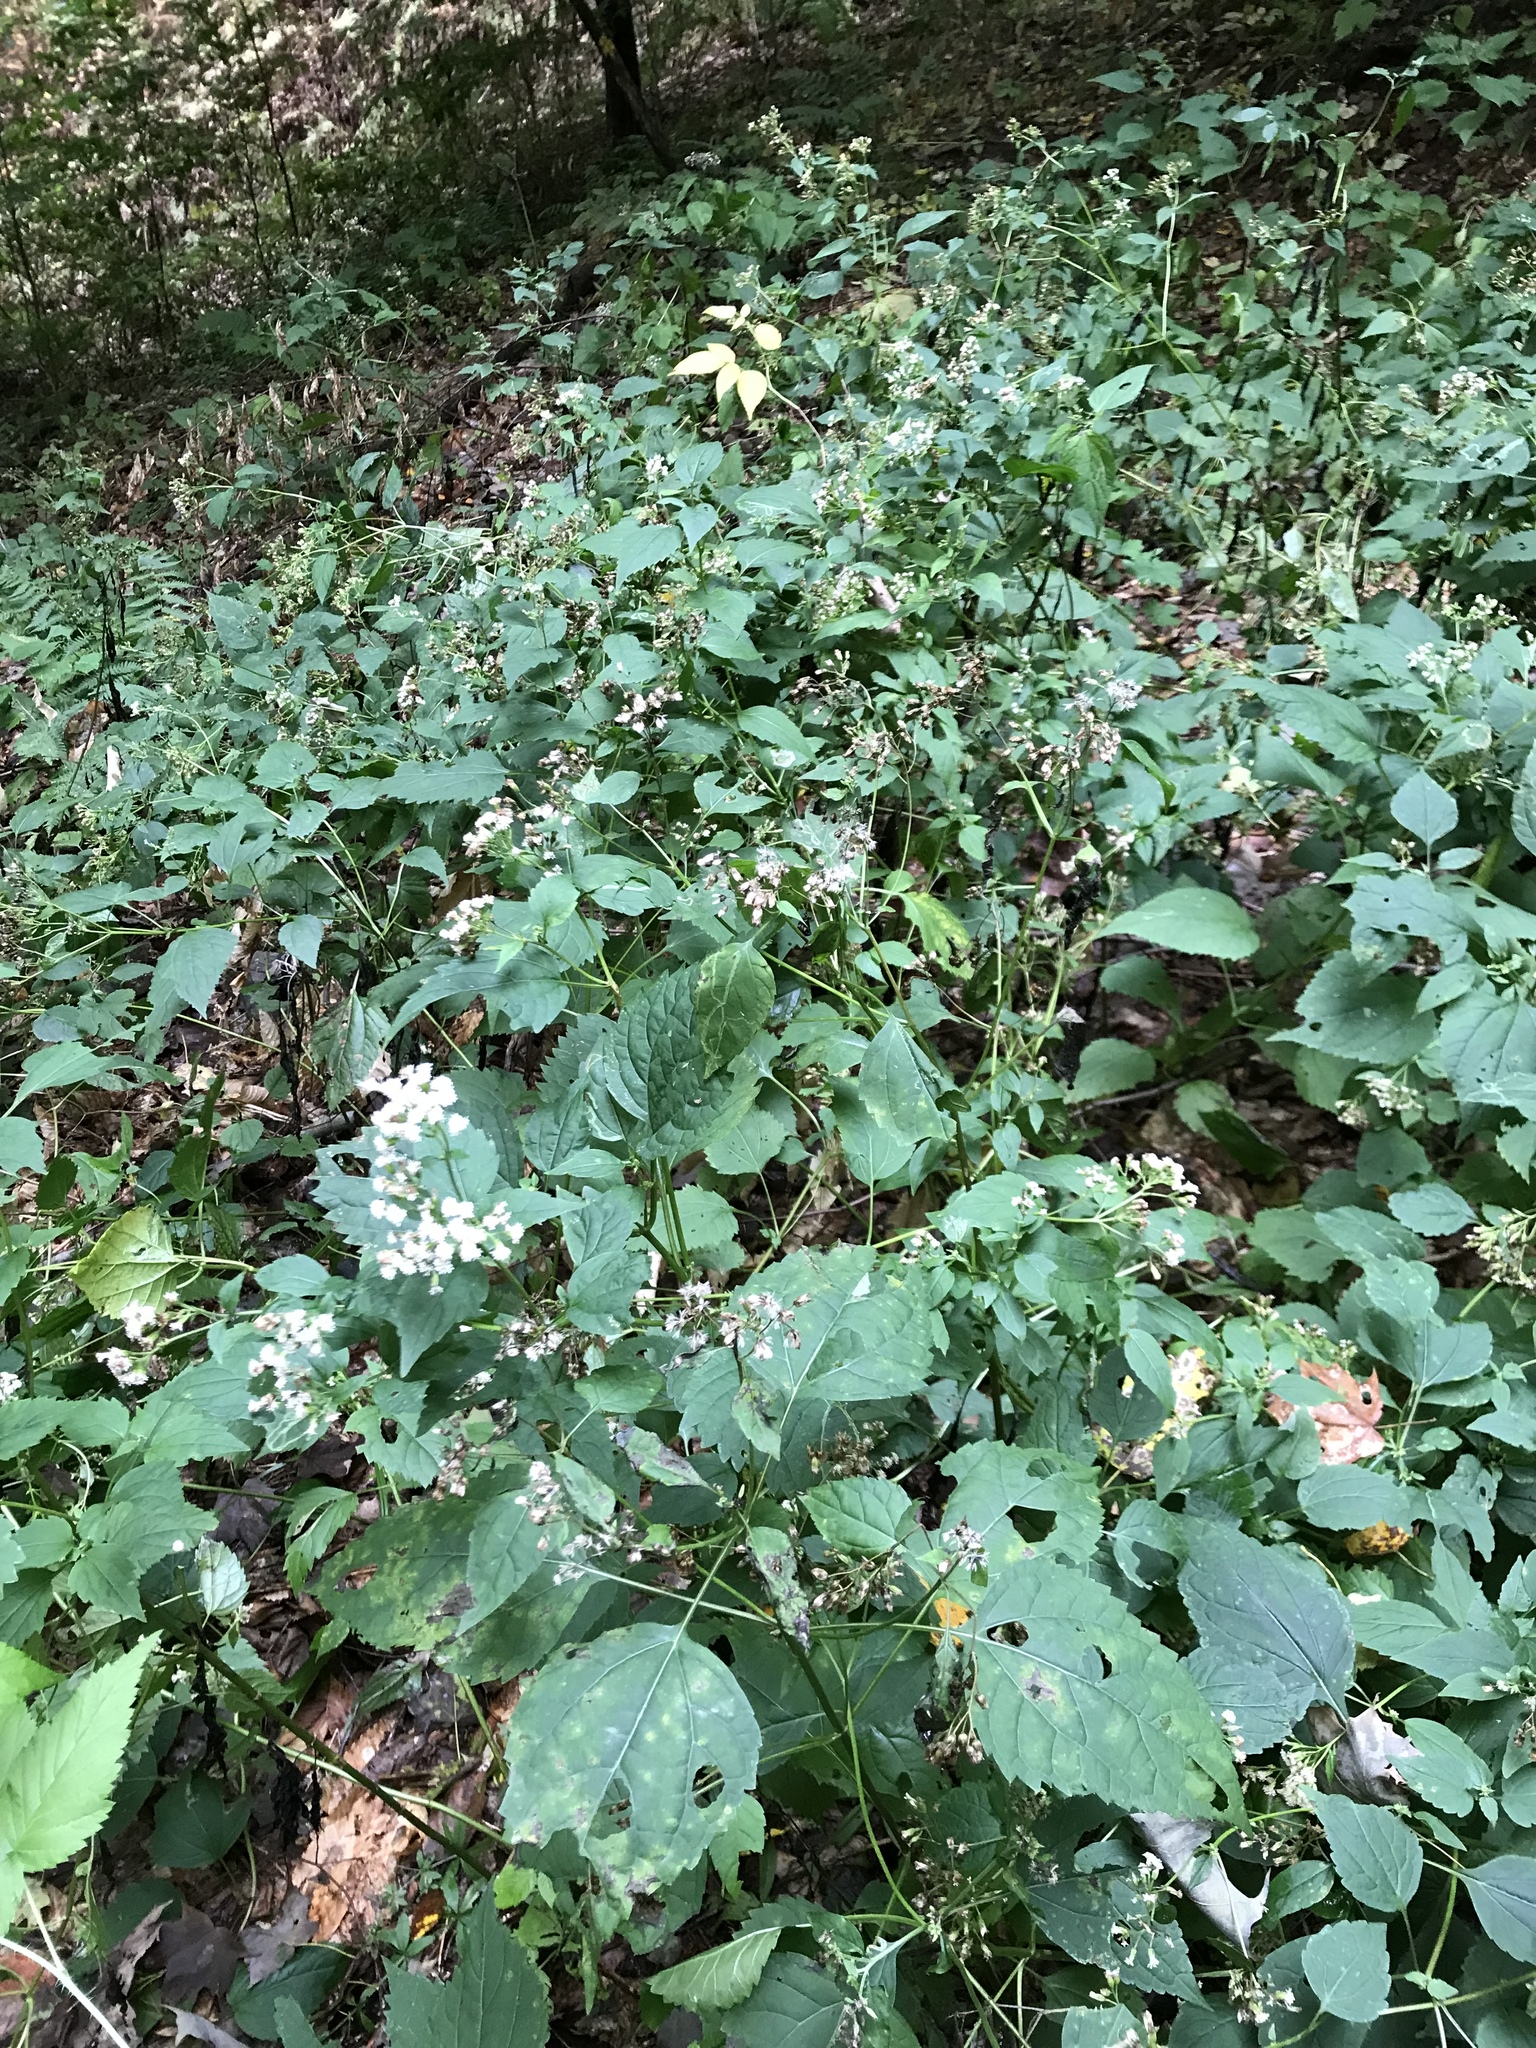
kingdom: Plantae
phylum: Tracheophyta
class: Magnoliopsida
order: Asterales
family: Asteraceae
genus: Ageratina
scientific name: Ageratina altissima
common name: White snakeroot
